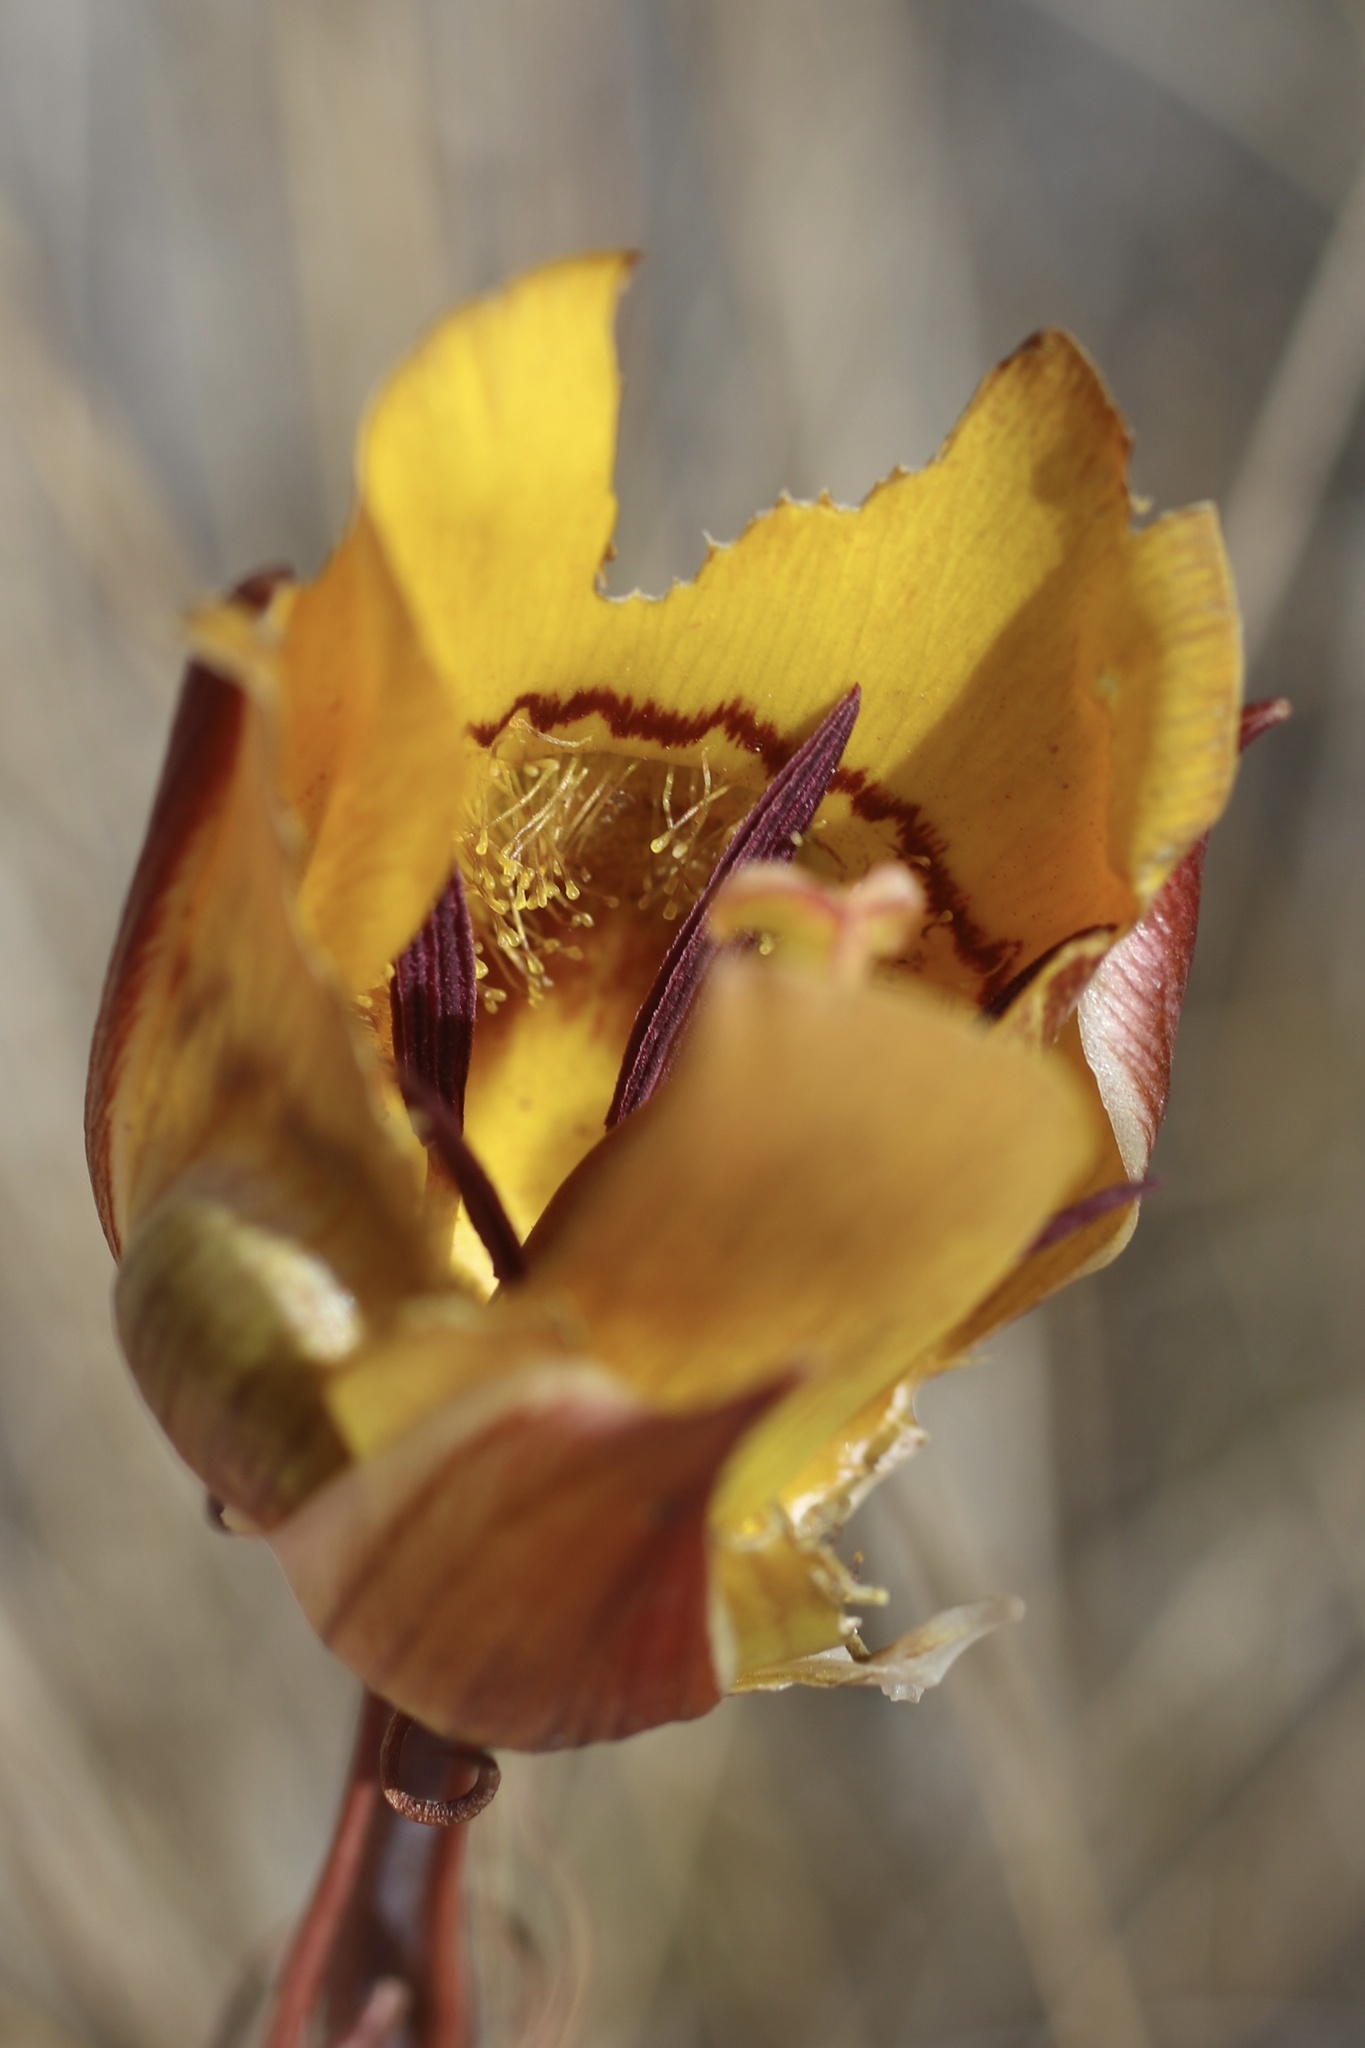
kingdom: Plantae
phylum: Tracheophyta
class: Liliopsida
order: Liliales
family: Liliaceae
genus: Calochortus
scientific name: Calochortus clavatus
